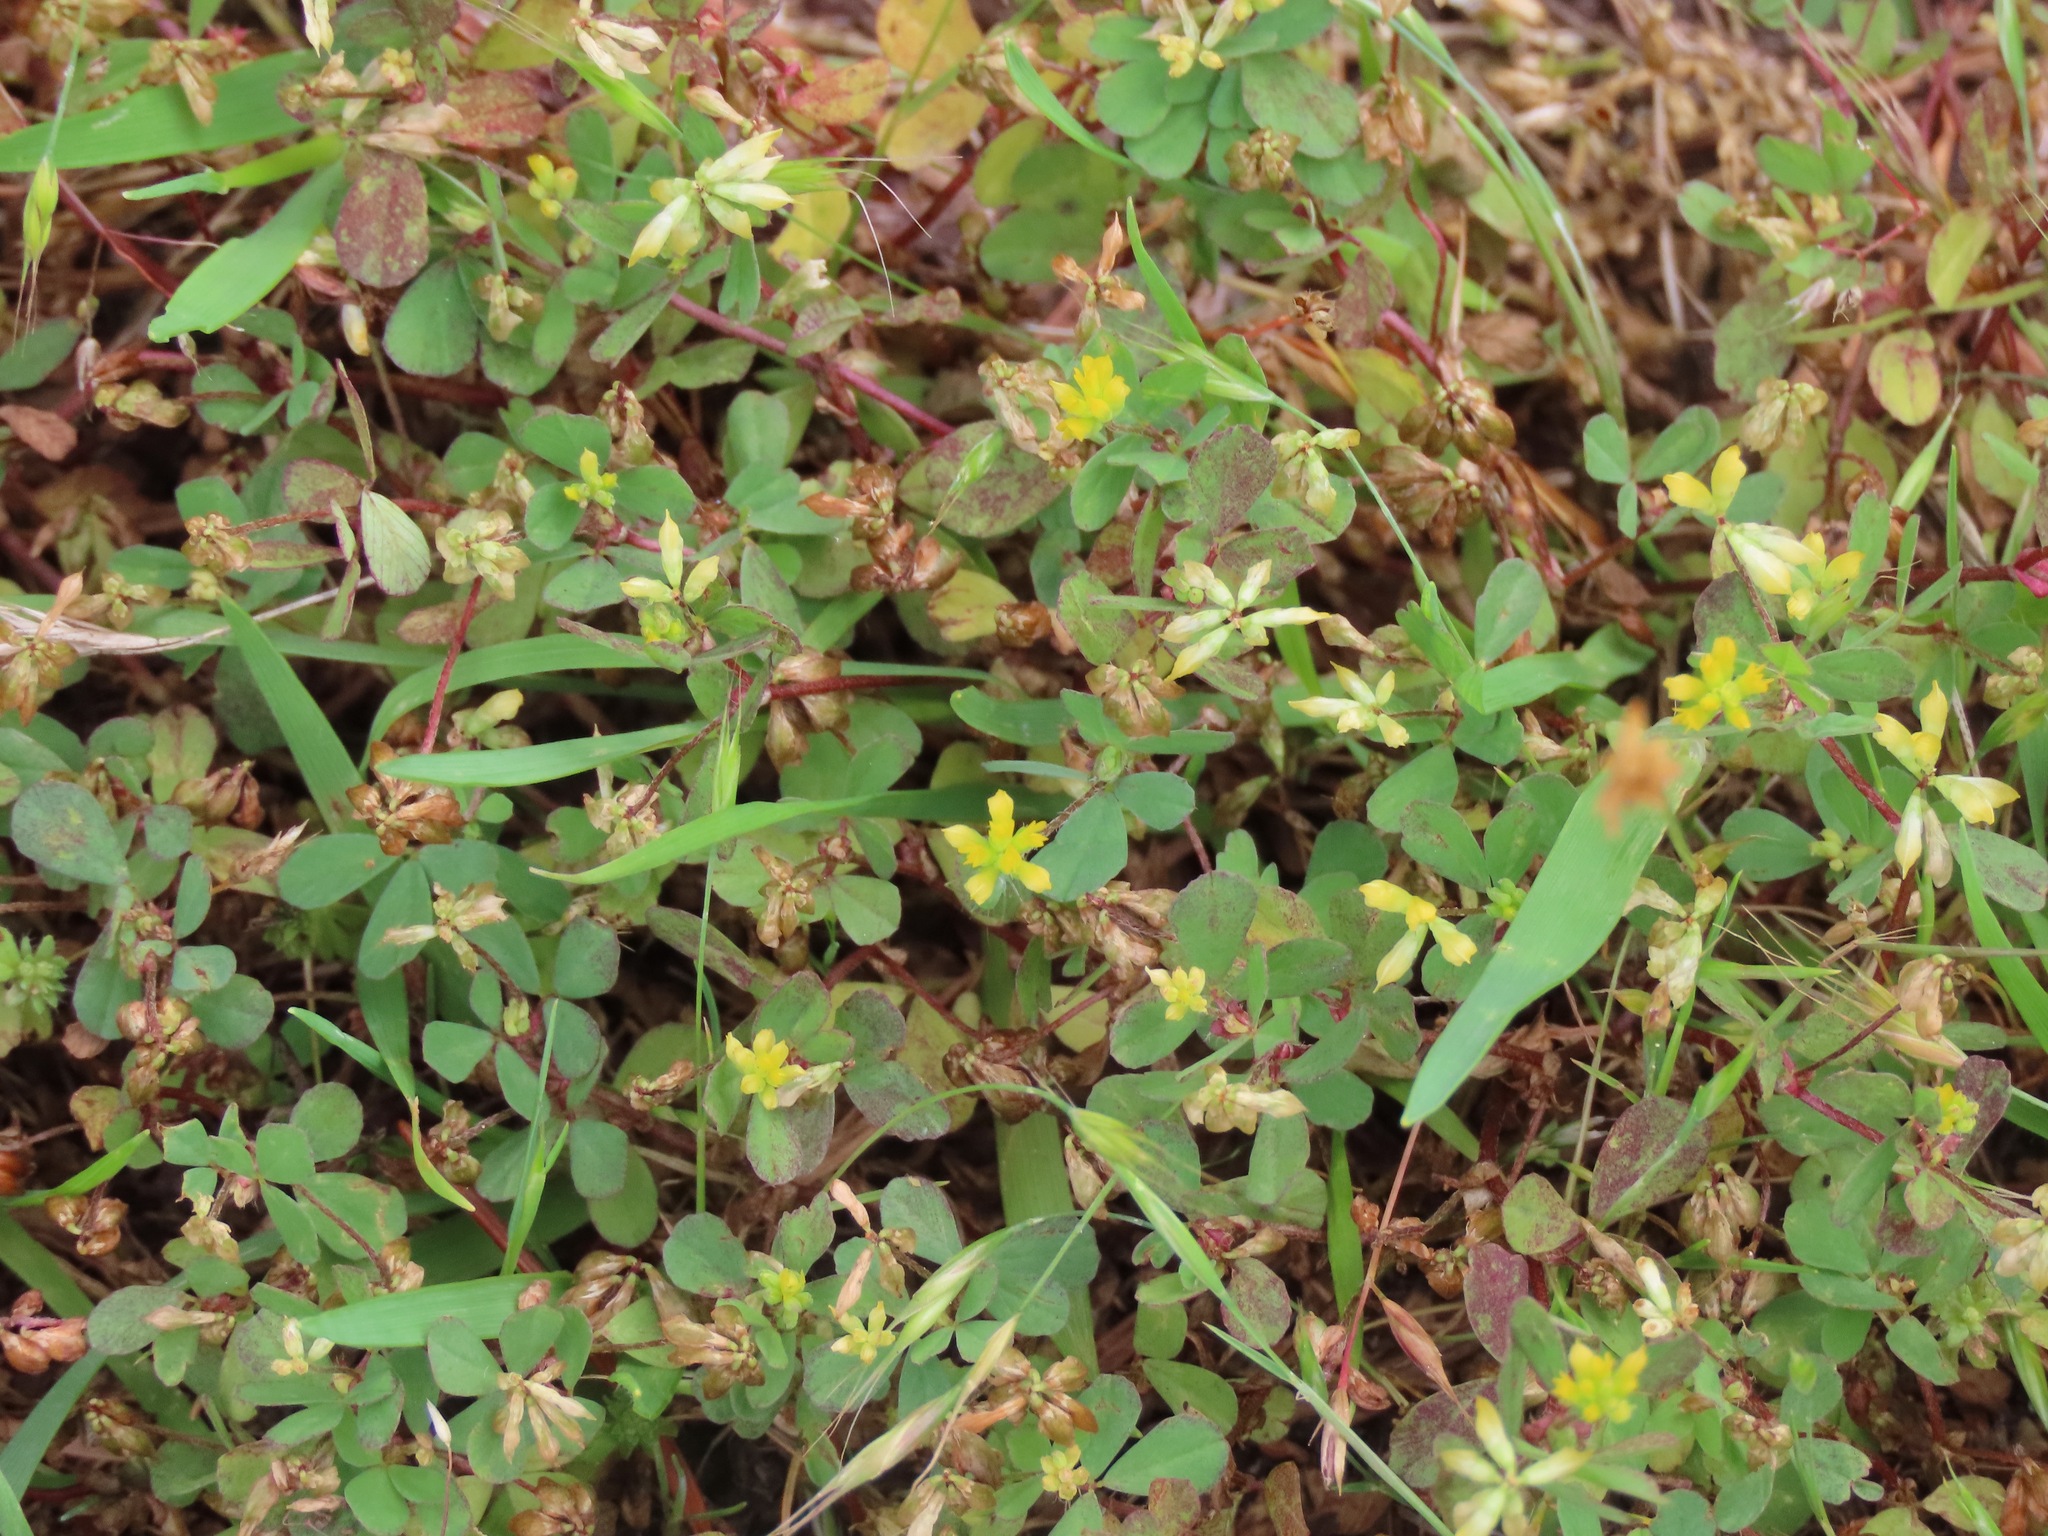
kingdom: Plantae
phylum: Tracheophyta
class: Magnoliopsida
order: Fabales
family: Fabaceae
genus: Trifolium
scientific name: Trifolium dubium
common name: Suckling clover
